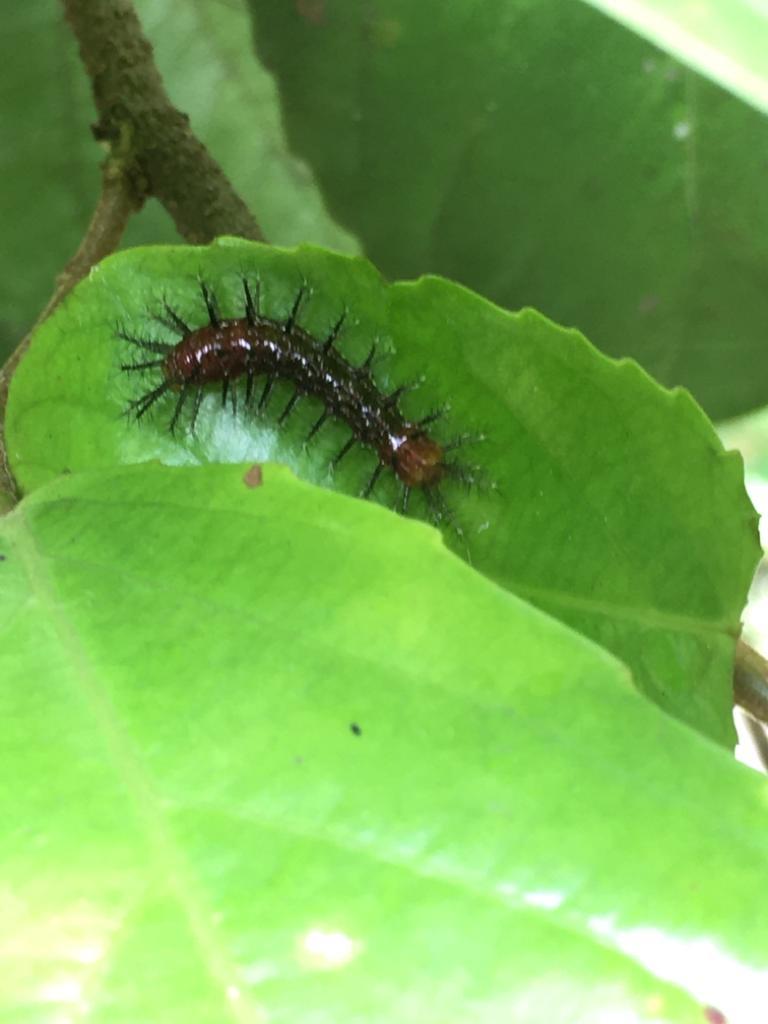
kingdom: Animalia
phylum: Arthropoda
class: Insecta
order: Lepidoptera
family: Nymphalidae
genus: Acraea
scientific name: Acraea terpsicore
